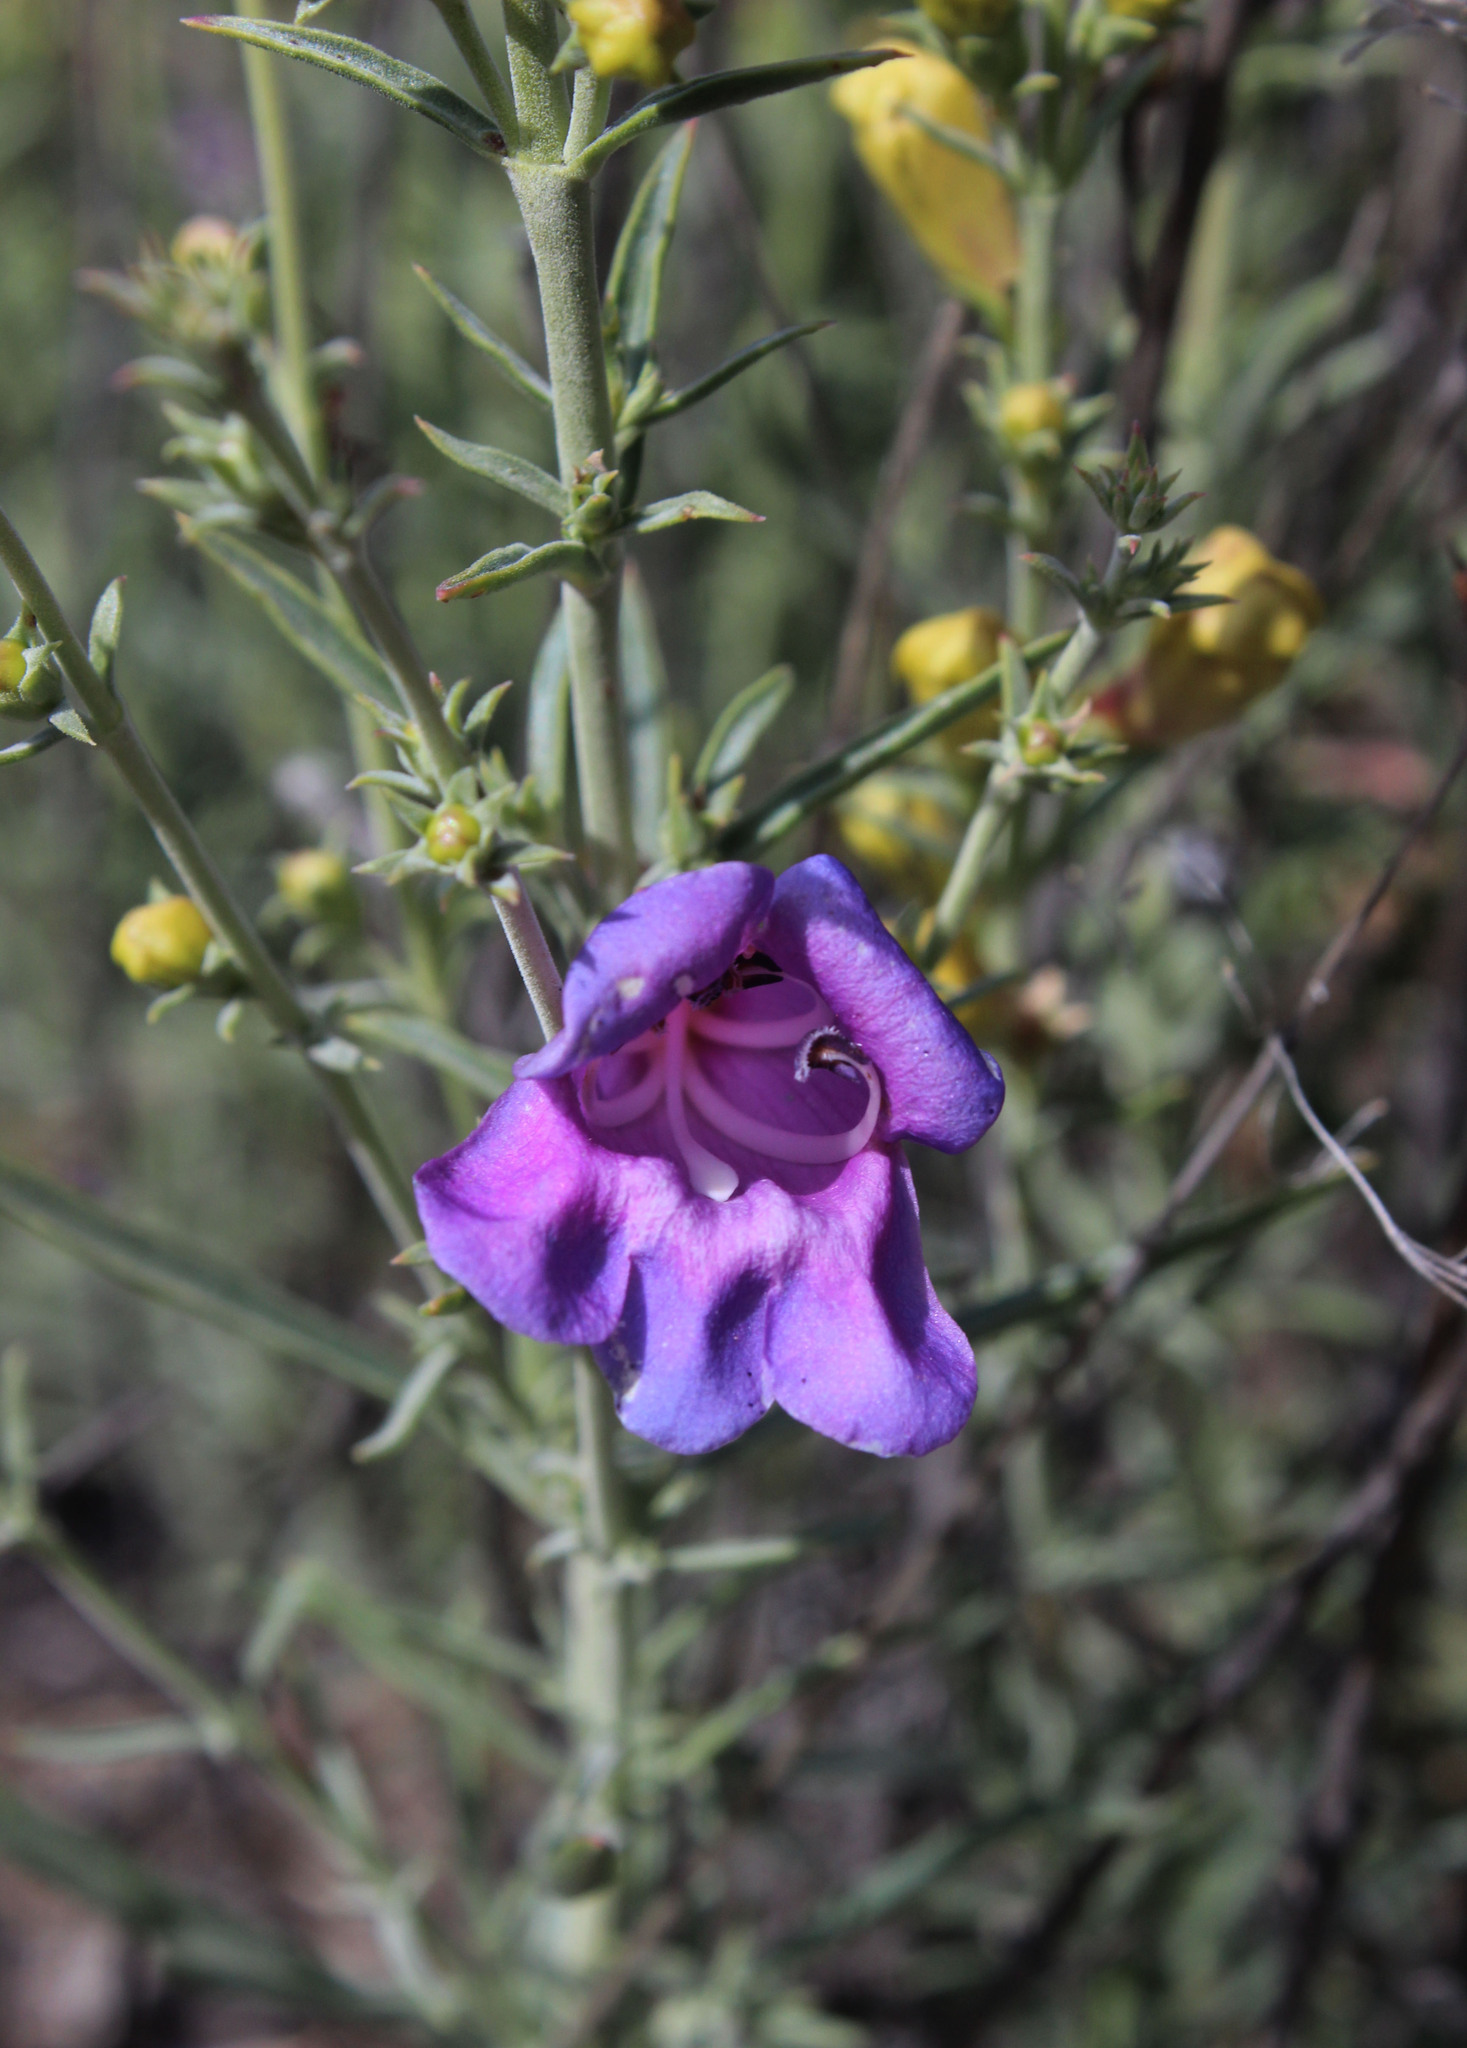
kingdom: Plantae
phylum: Tracheophyta
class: Magnoliopsida
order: Lamiales
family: Plantaginaceae
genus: Penstemon
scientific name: Penstemon heterophyllus
